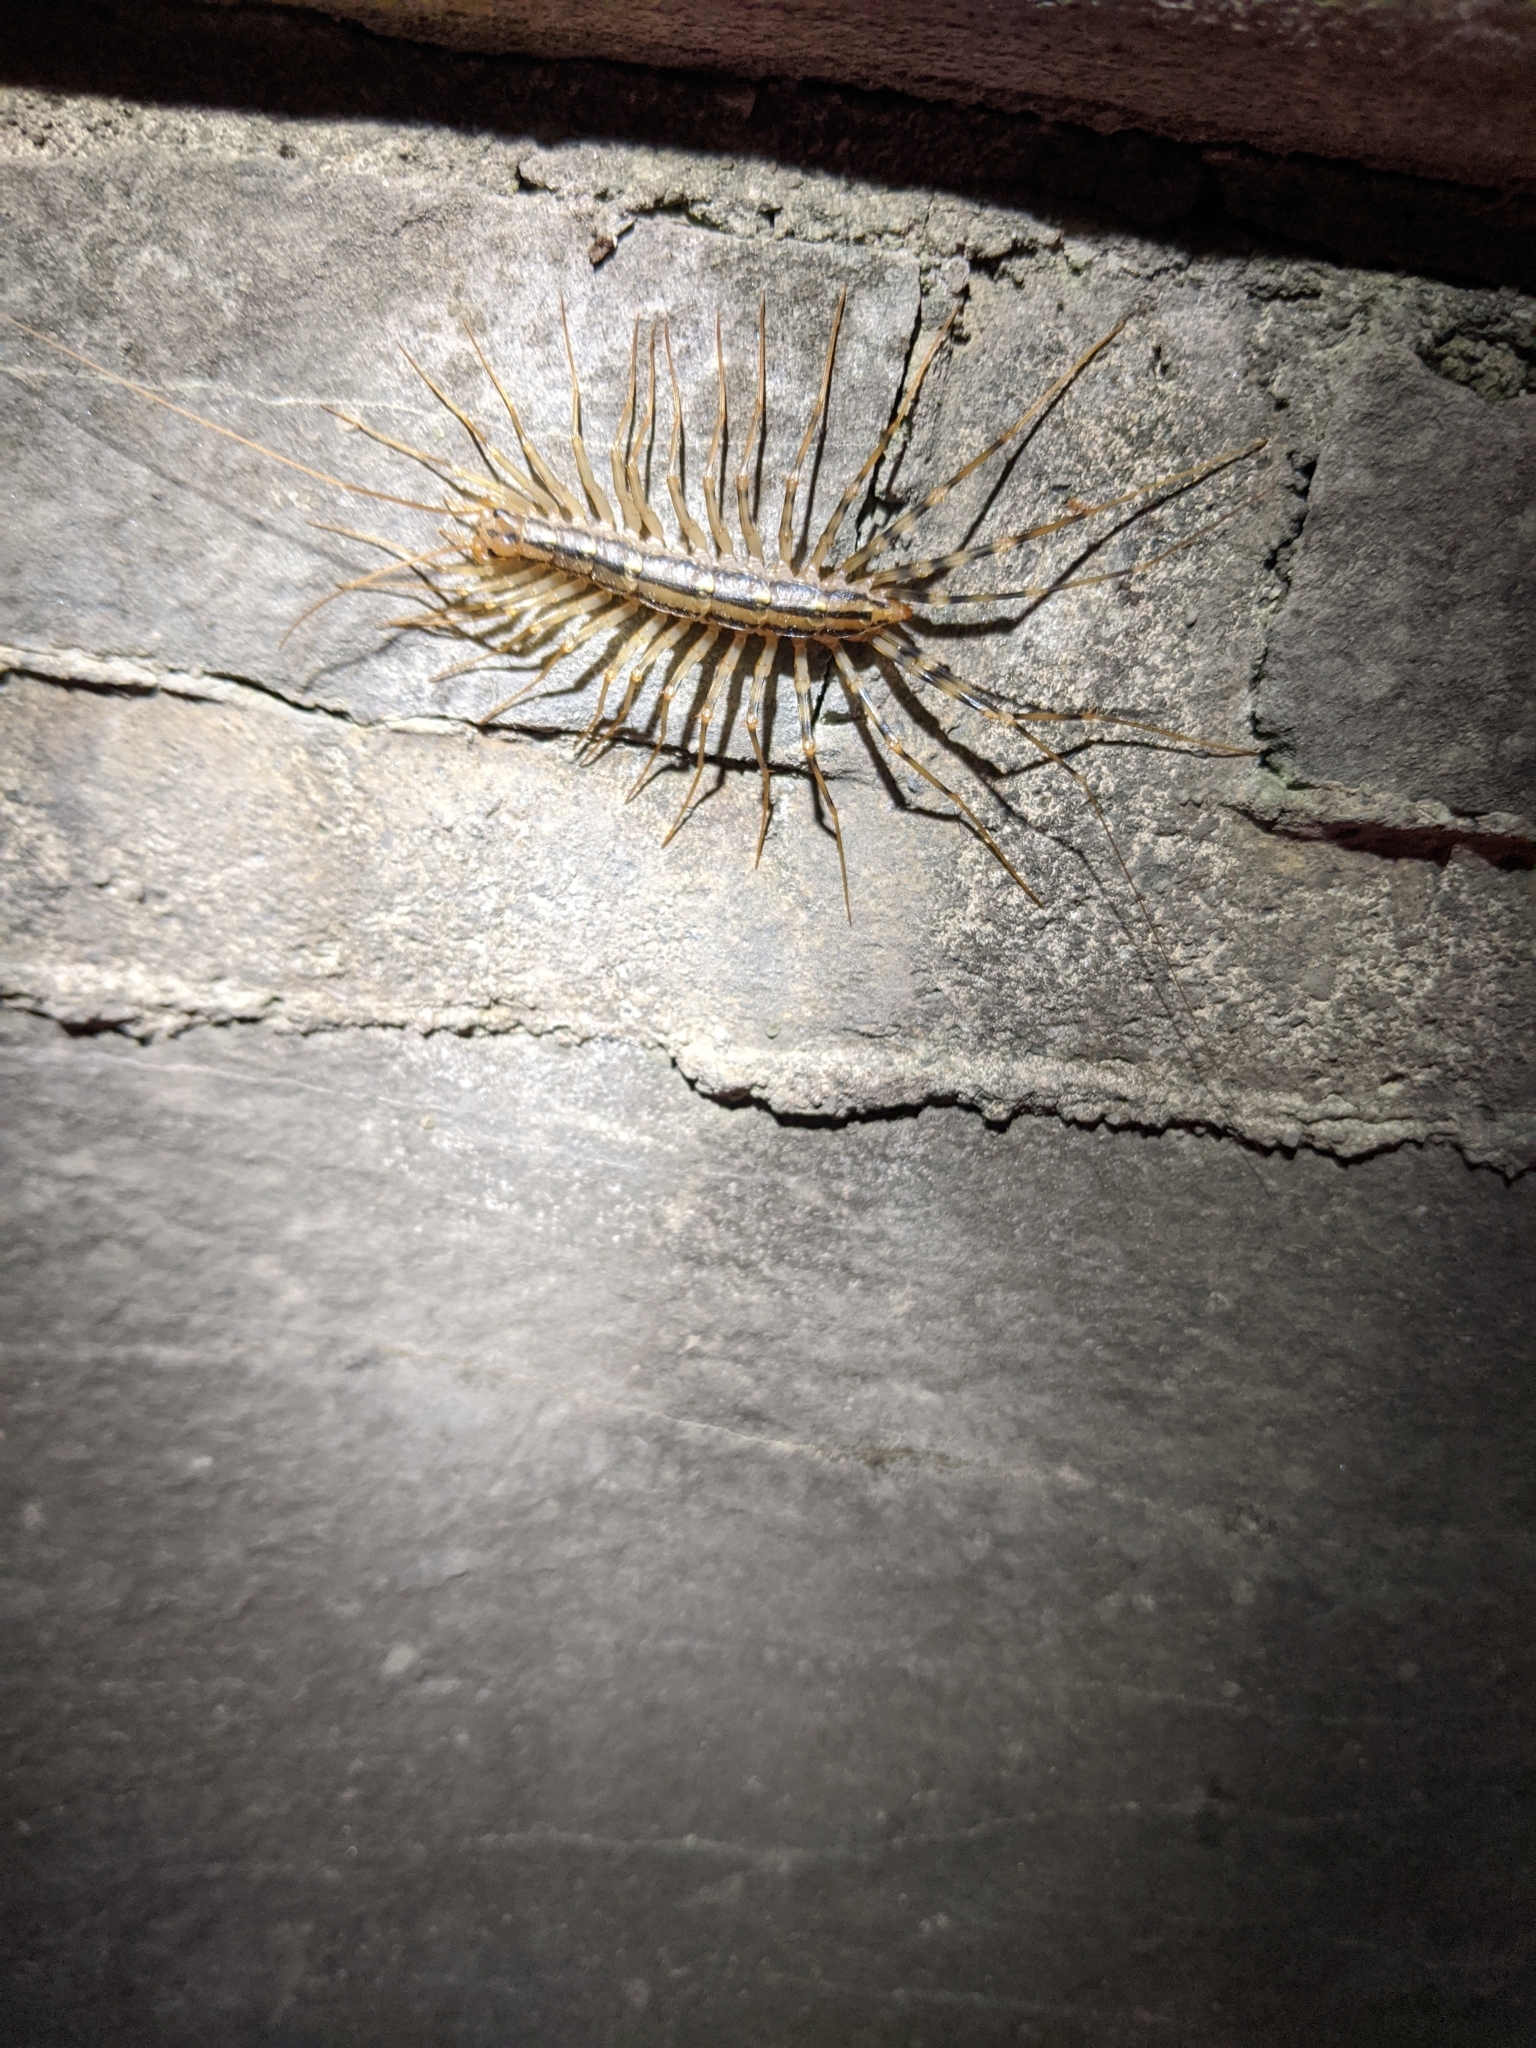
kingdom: Animalia
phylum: Arthropoda
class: Chilopoda
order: Scutigeromorpha
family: Scutigeridae
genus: Scutigera
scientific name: Scutigera coleoptrata
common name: House centipede
